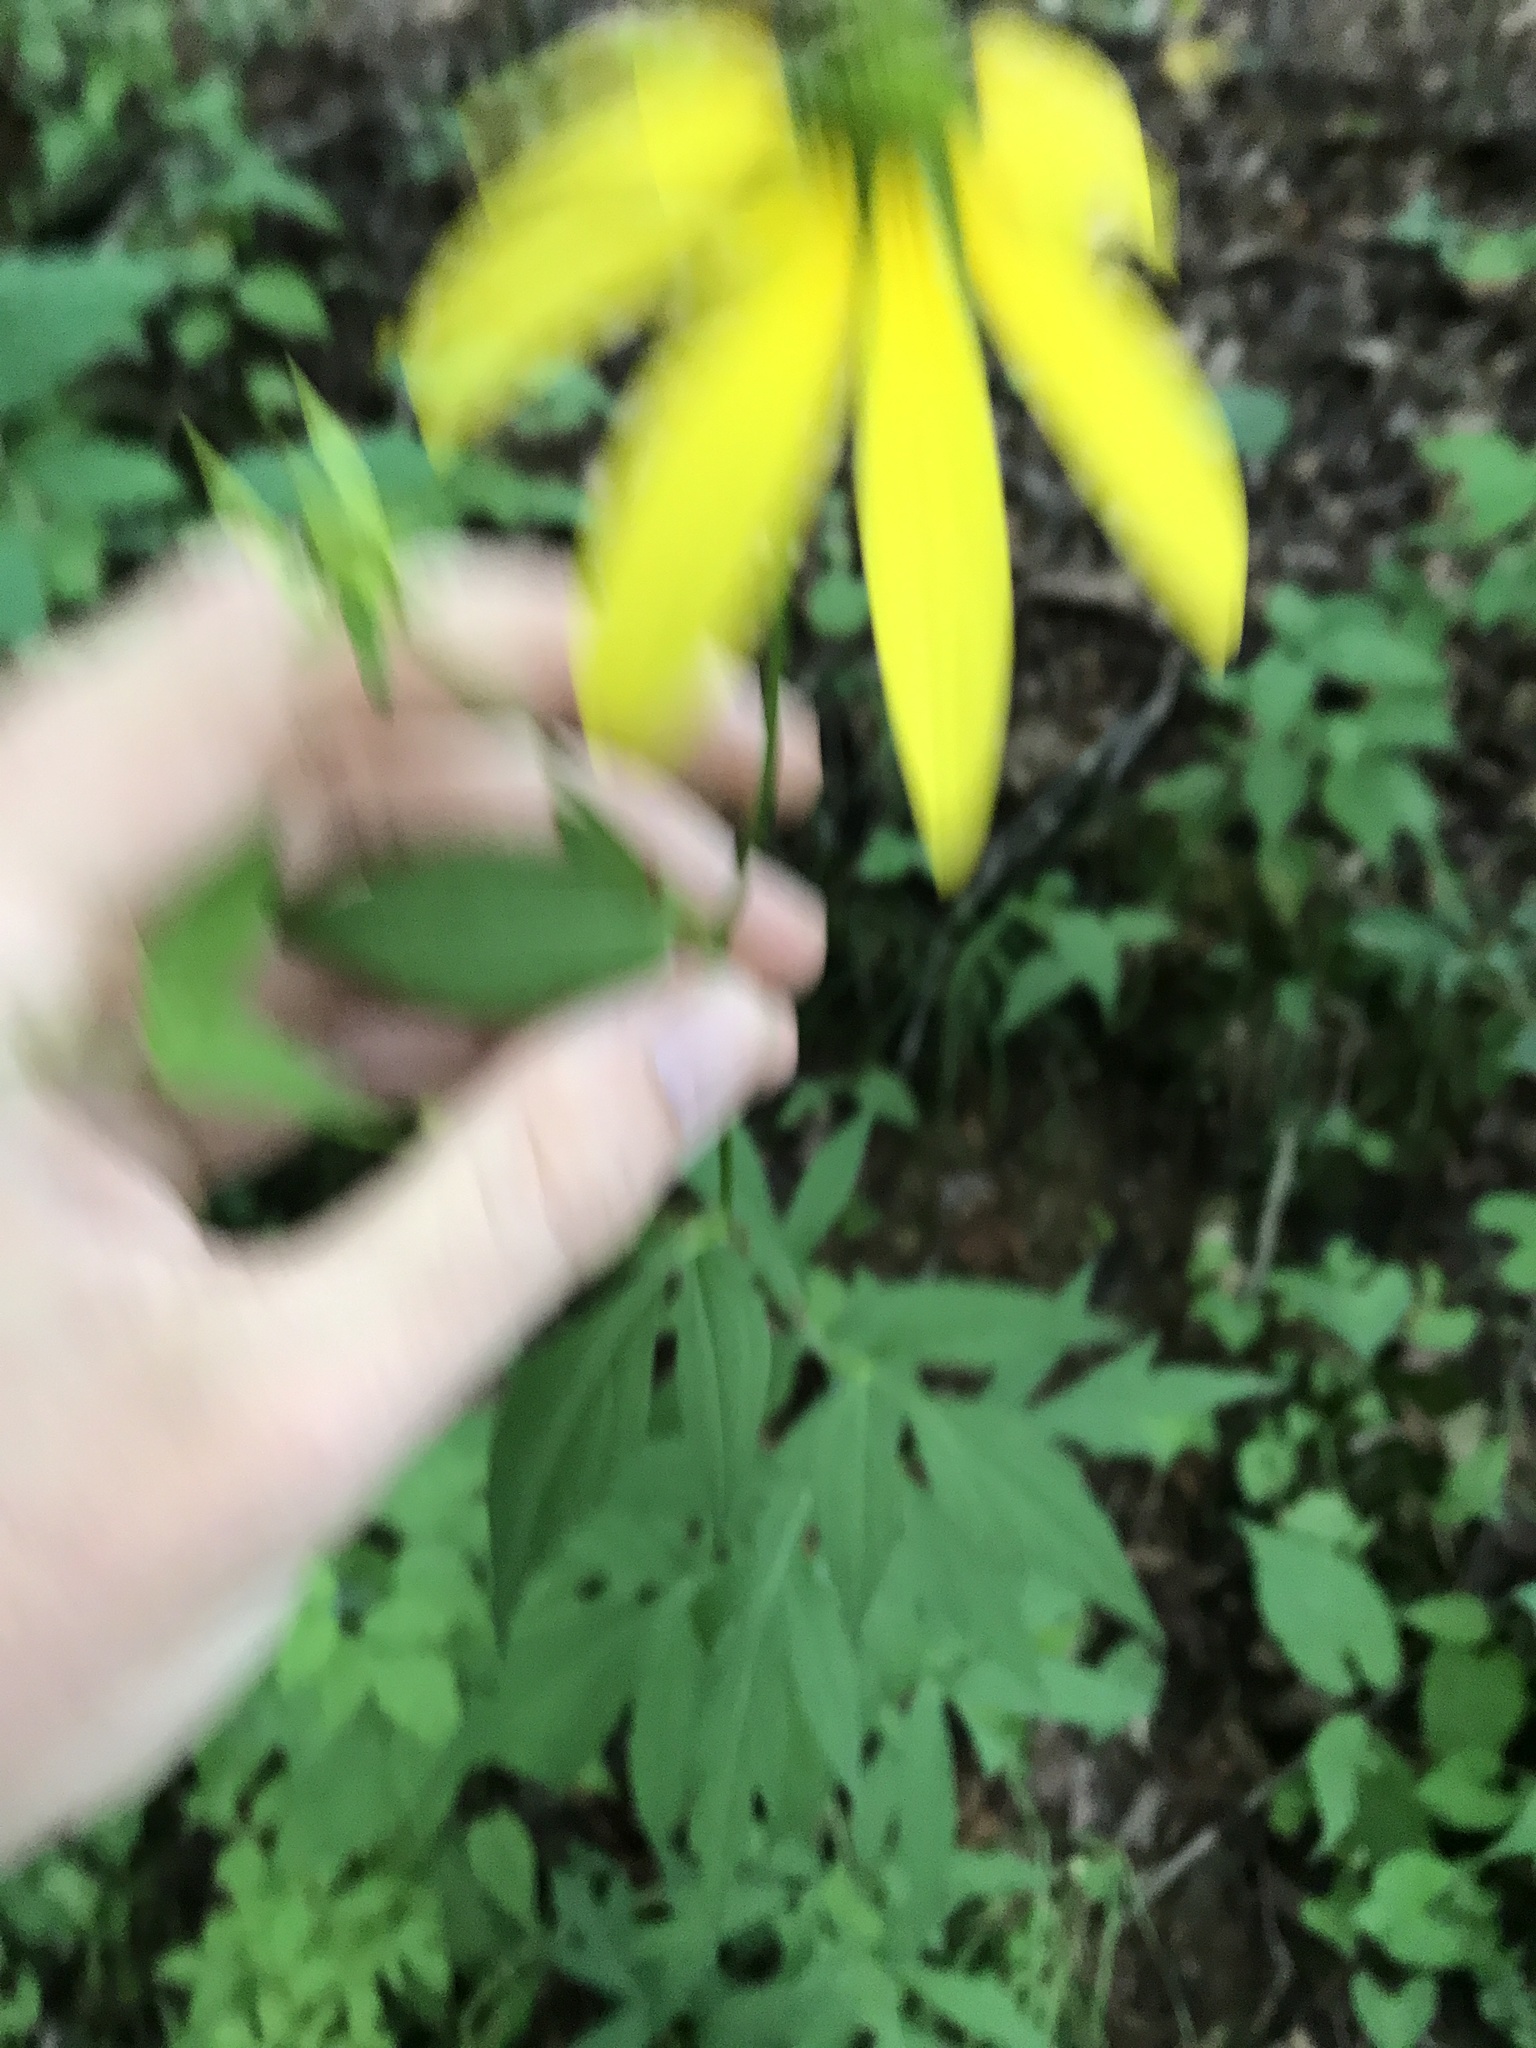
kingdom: Plantae
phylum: Tracheophyta
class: Magnoliopsida
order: Asterales
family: Asteraceae
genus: Rudbeckia
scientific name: Rudbeckia laciniata
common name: Coneflower
